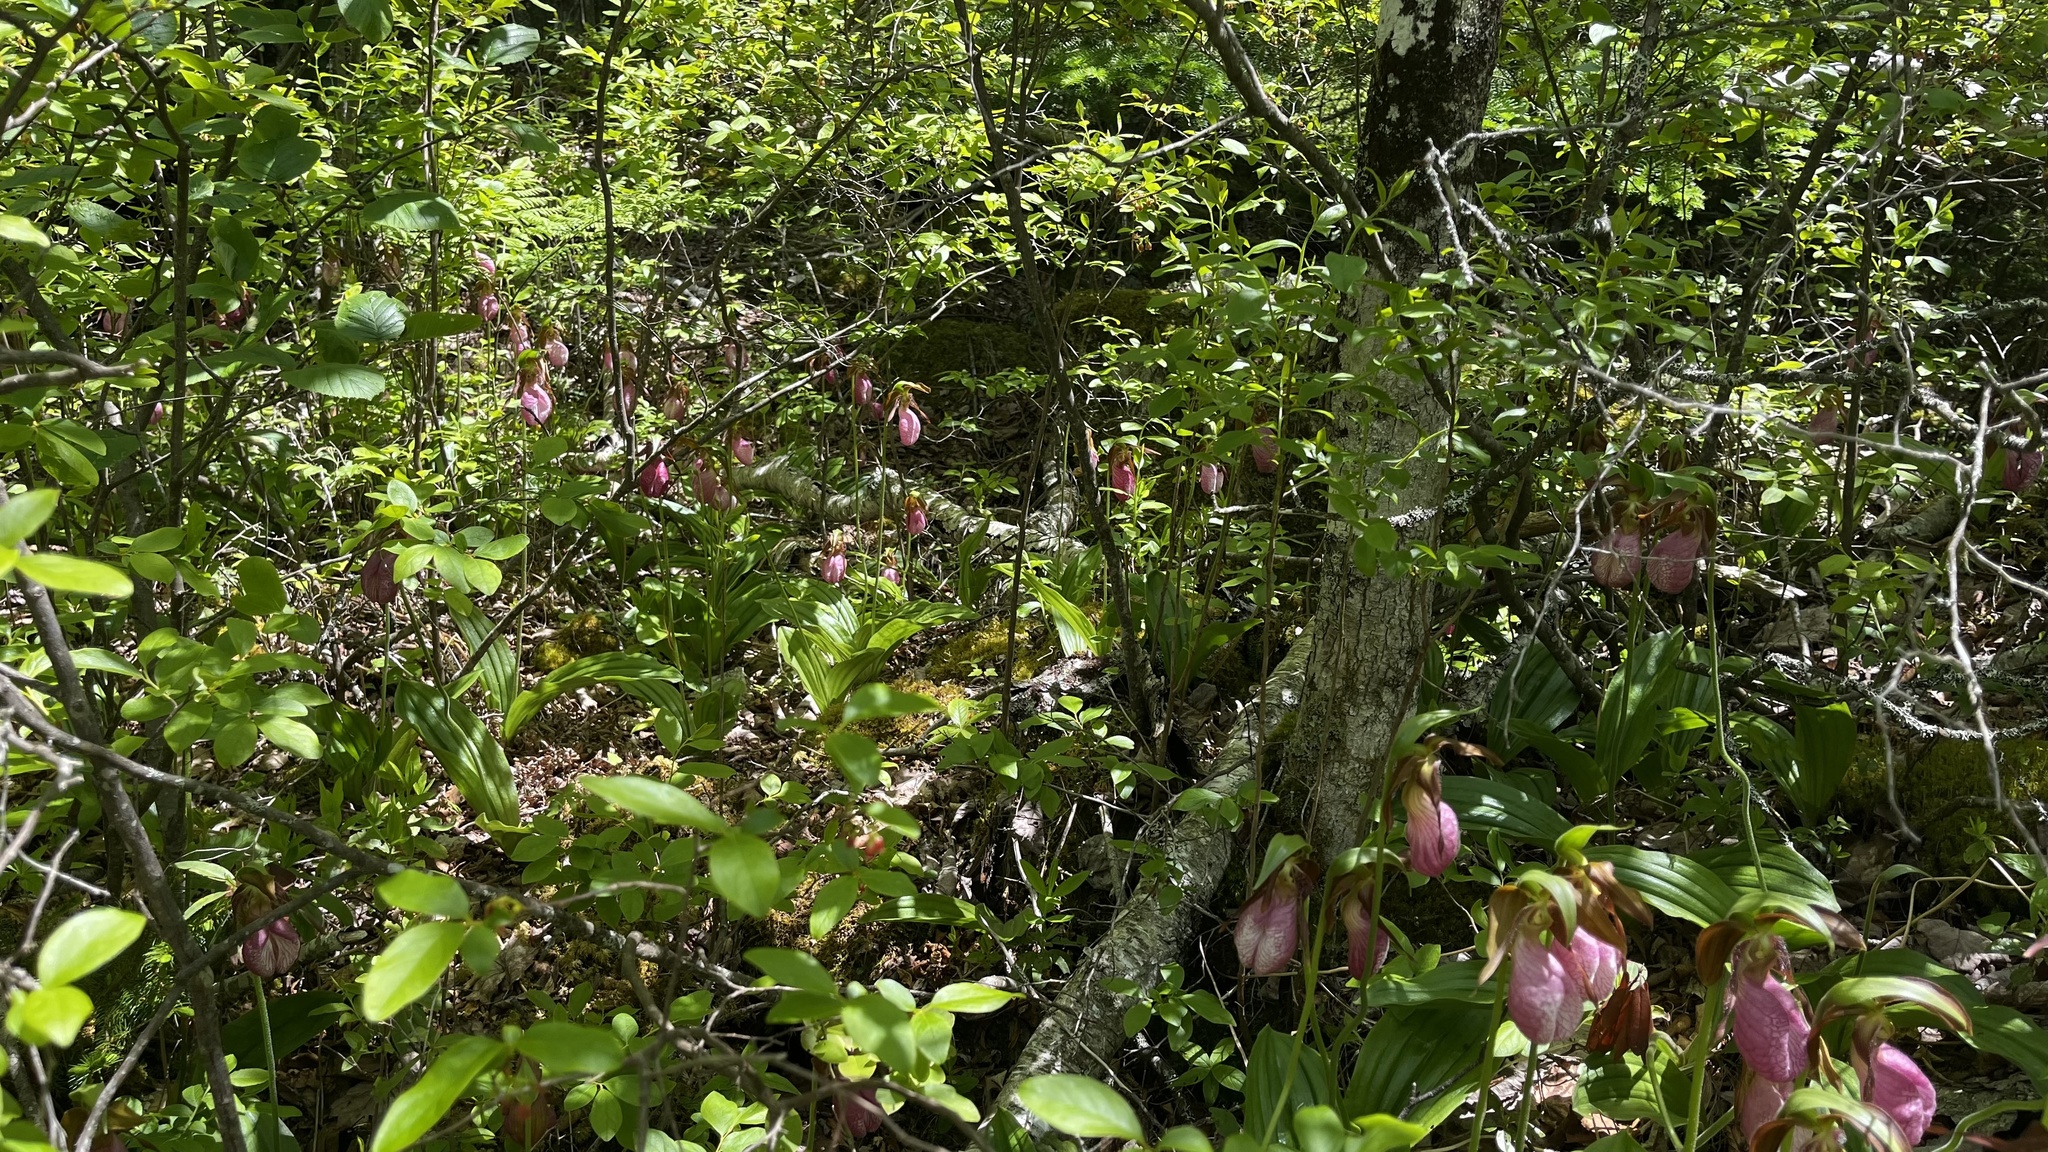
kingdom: Plantae
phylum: Tracheophyta
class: Liliopsida
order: Asparagales
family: Orchidaceae
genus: Cypripedium
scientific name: Cypripedium acaule
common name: Pink lady's-slipper
